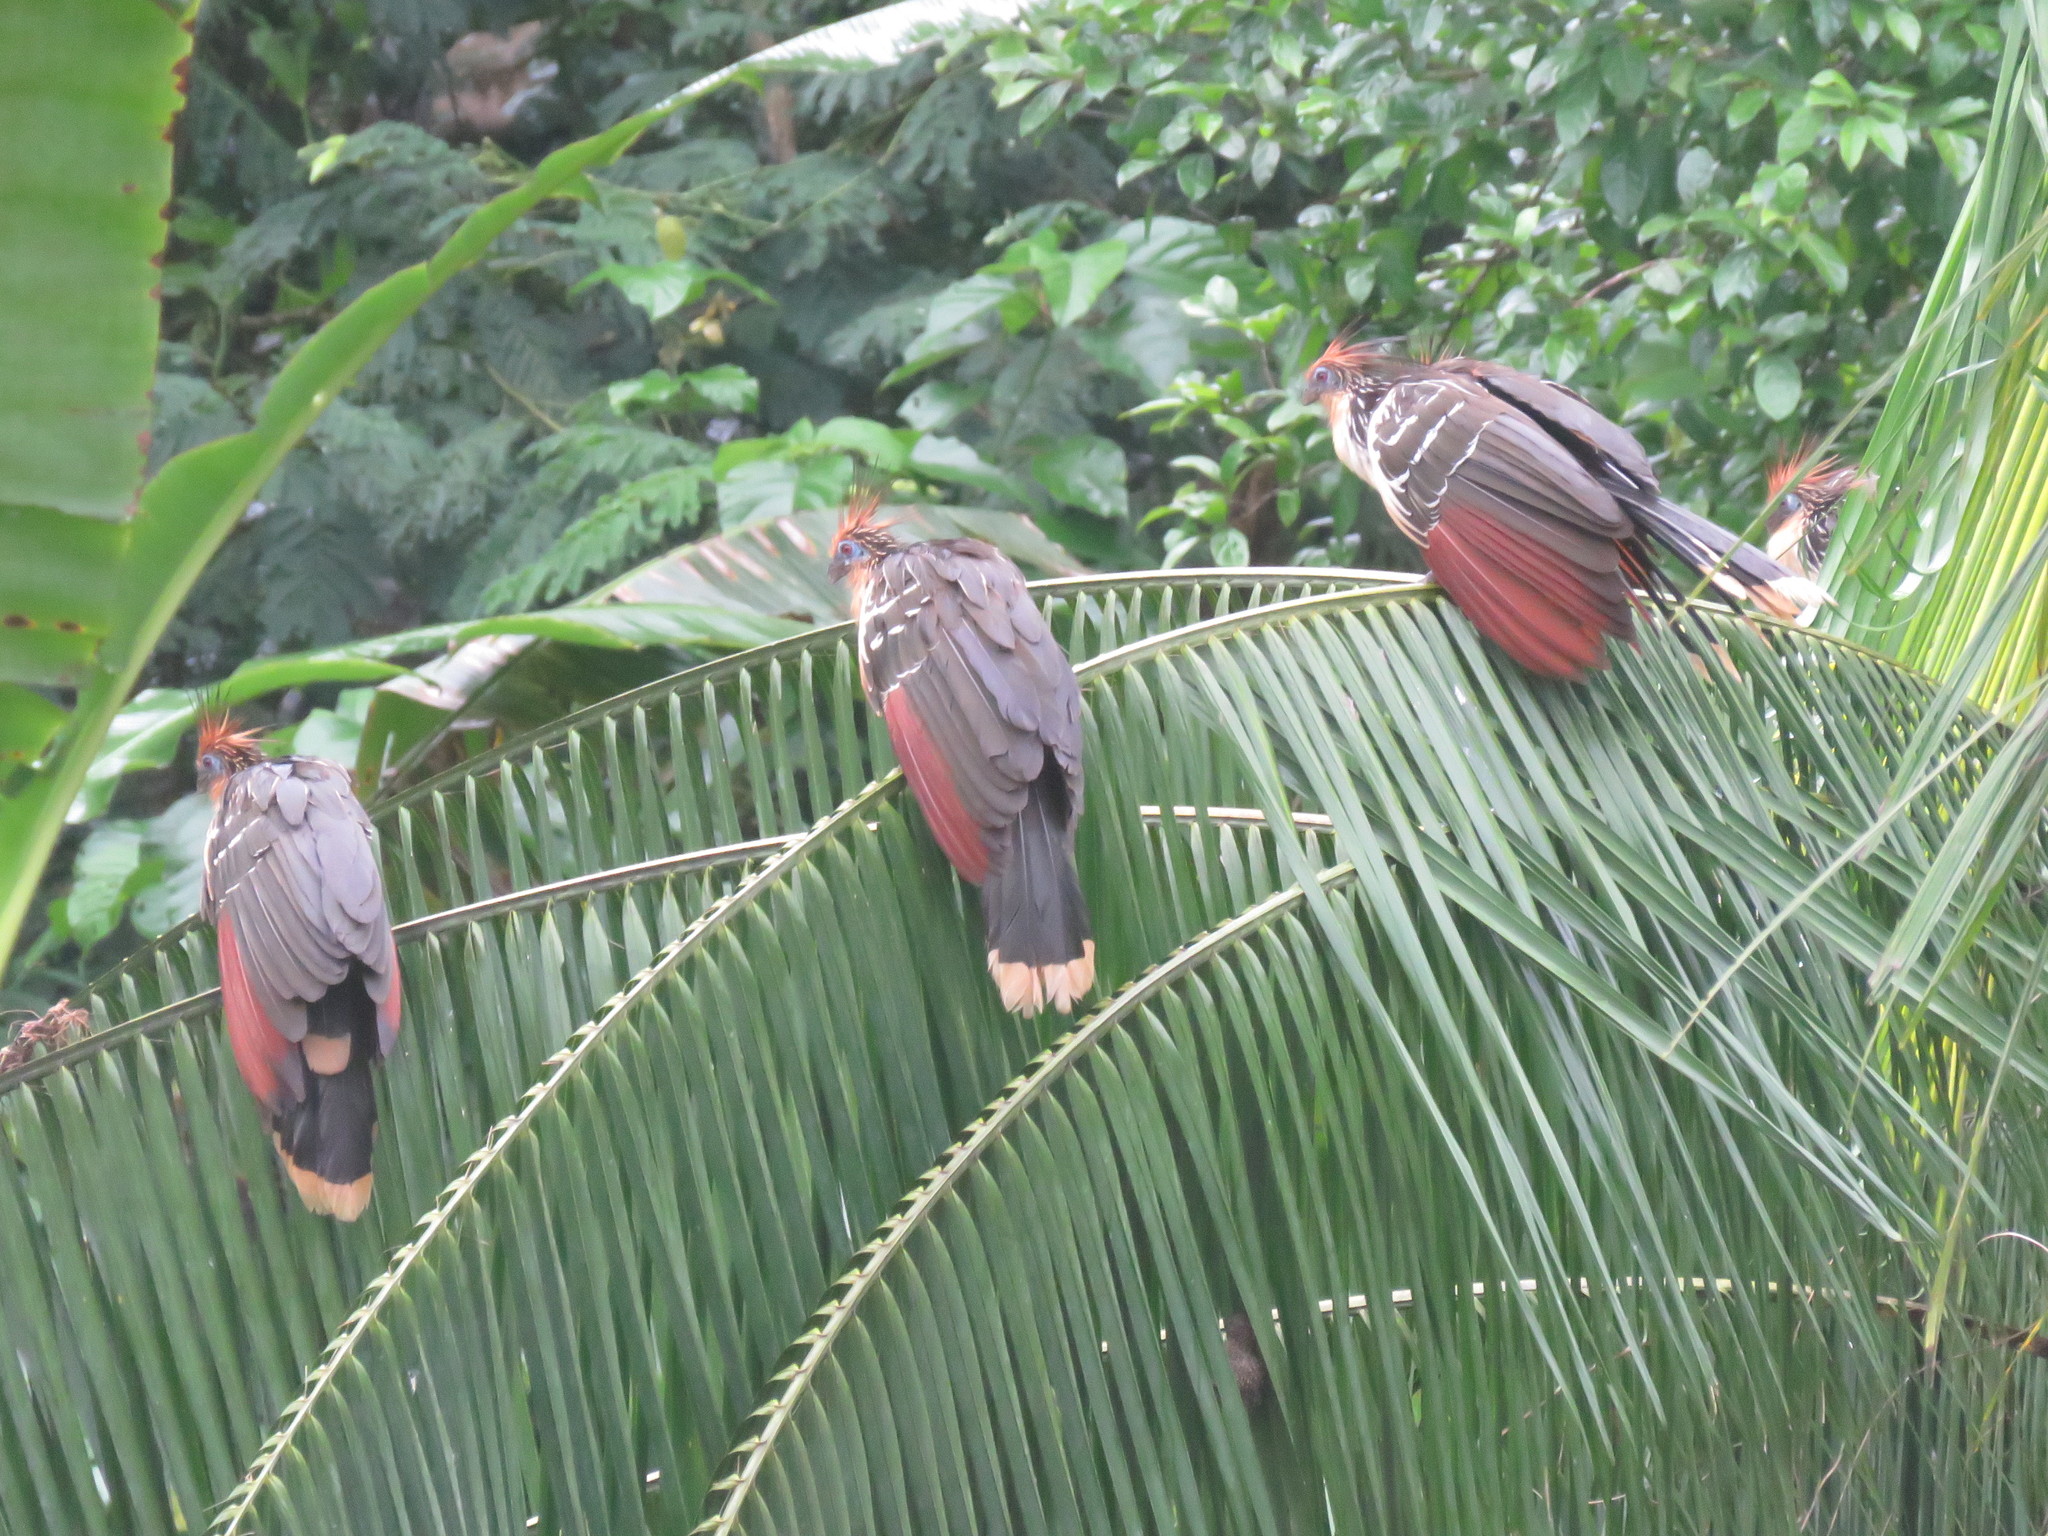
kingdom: Animalia
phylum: Chordata
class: Aves
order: Opisthocomiformes
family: Opisthocomidae
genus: Opisthocomus
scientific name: Opisthocomus hoazin
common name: Hoatzin
